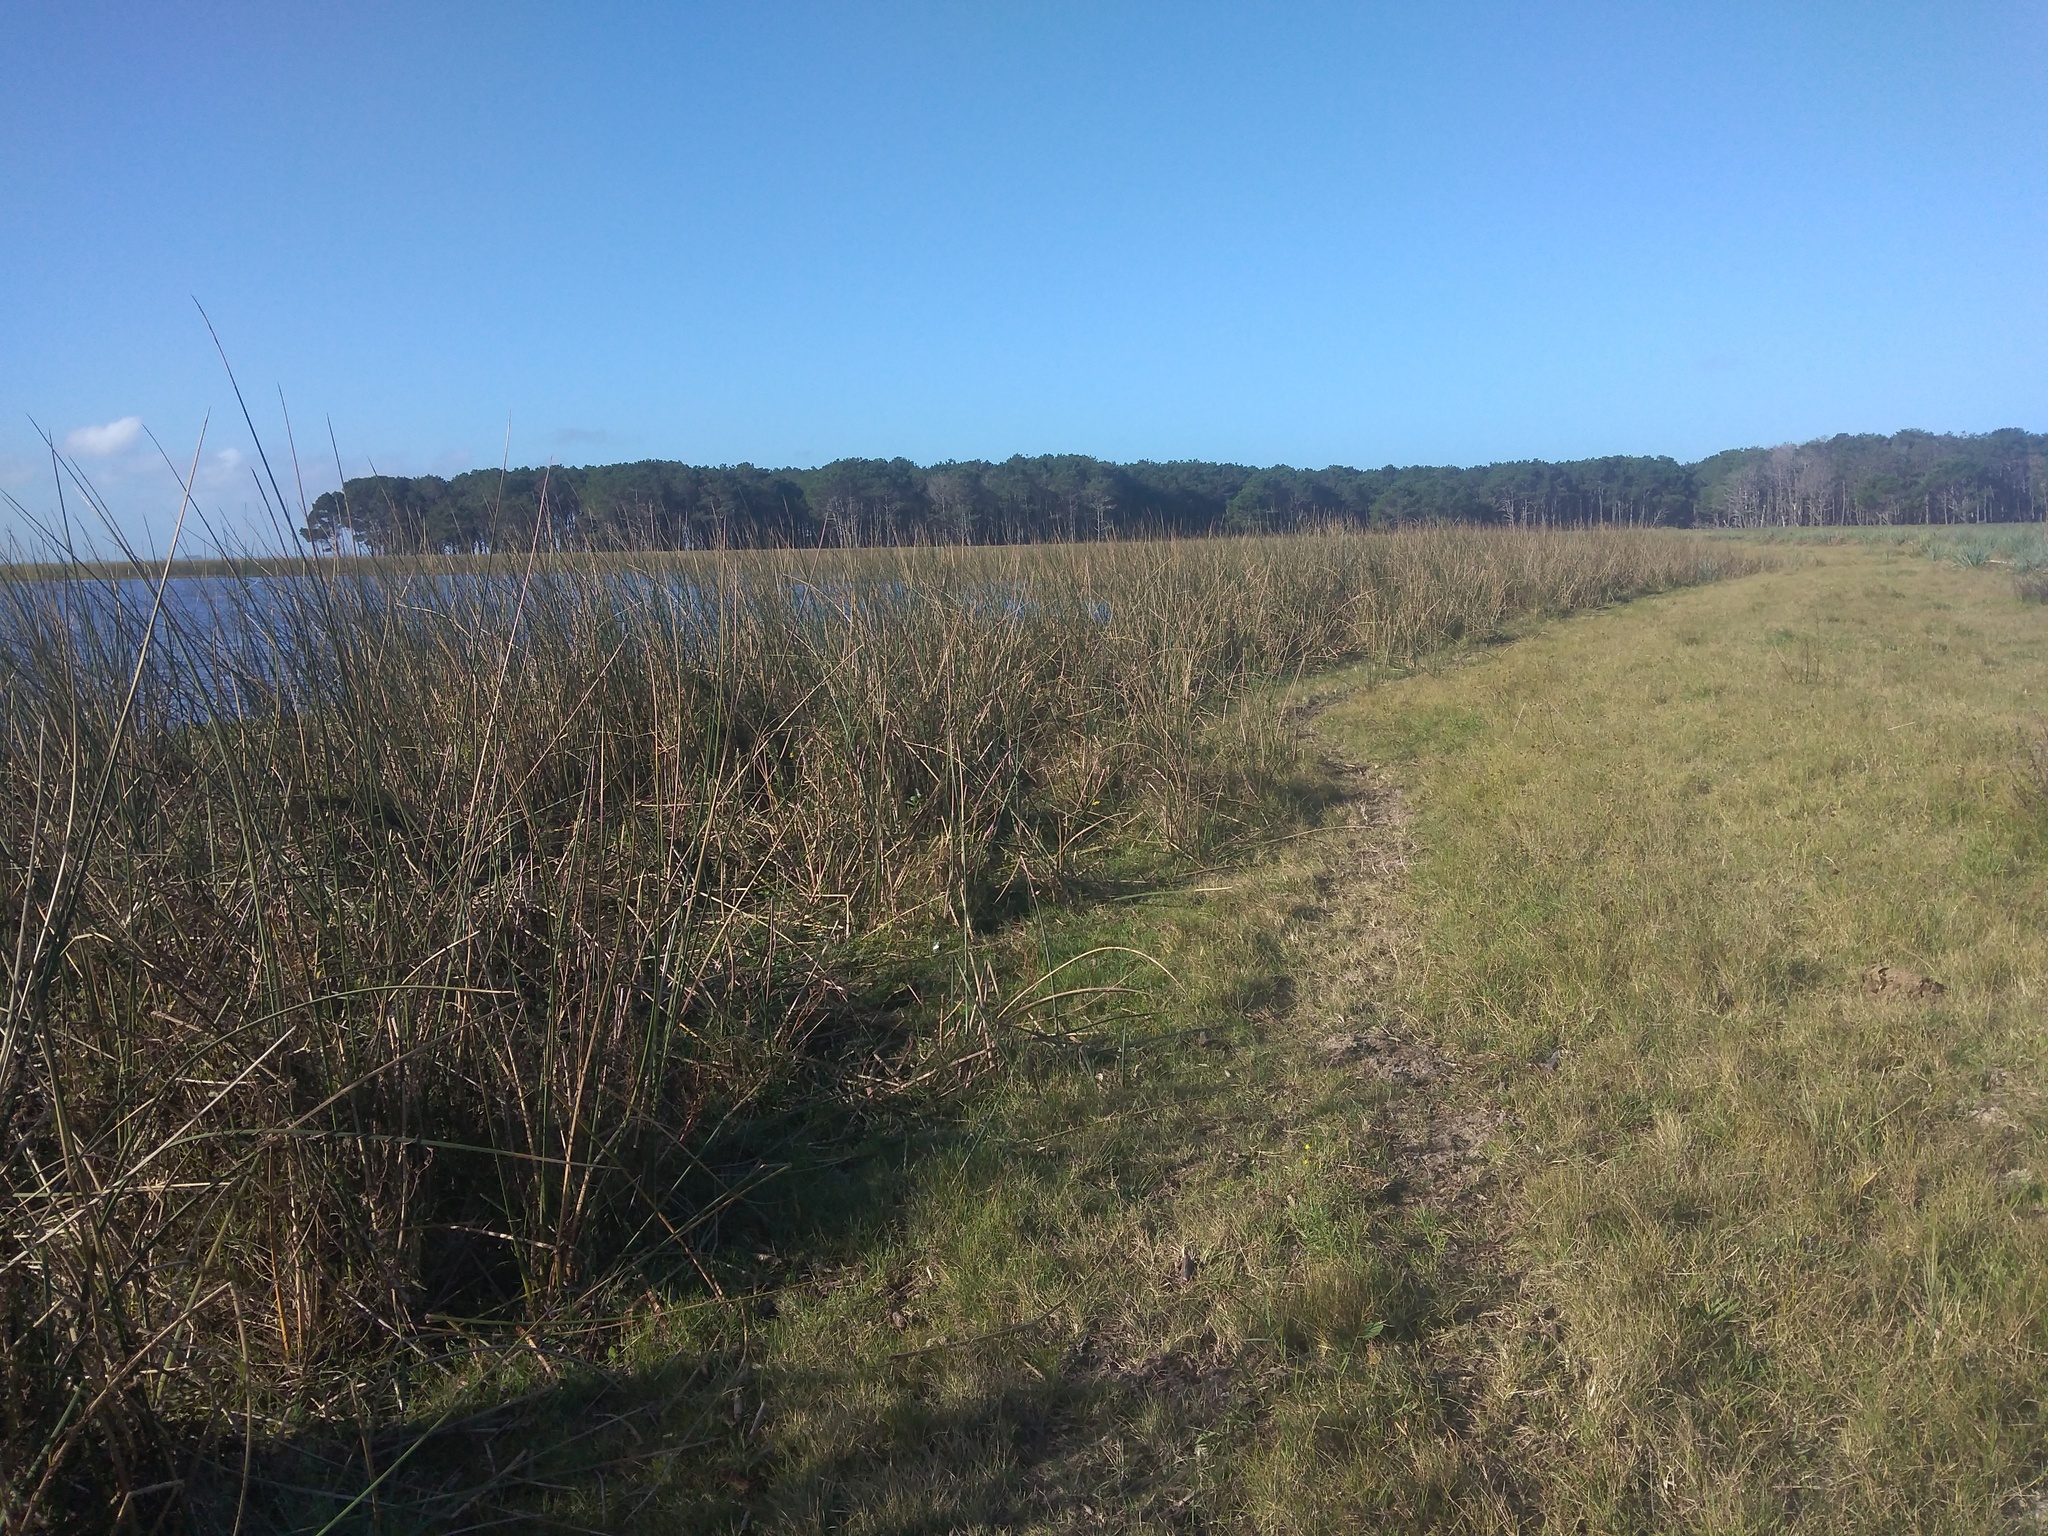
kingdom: Plantae
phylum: Tracheophyta
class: Liliopsida
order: Poales
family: Cyperaceae
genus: Schoenoplectus
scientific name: Schoenoplectus californicus
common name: California bulrush
